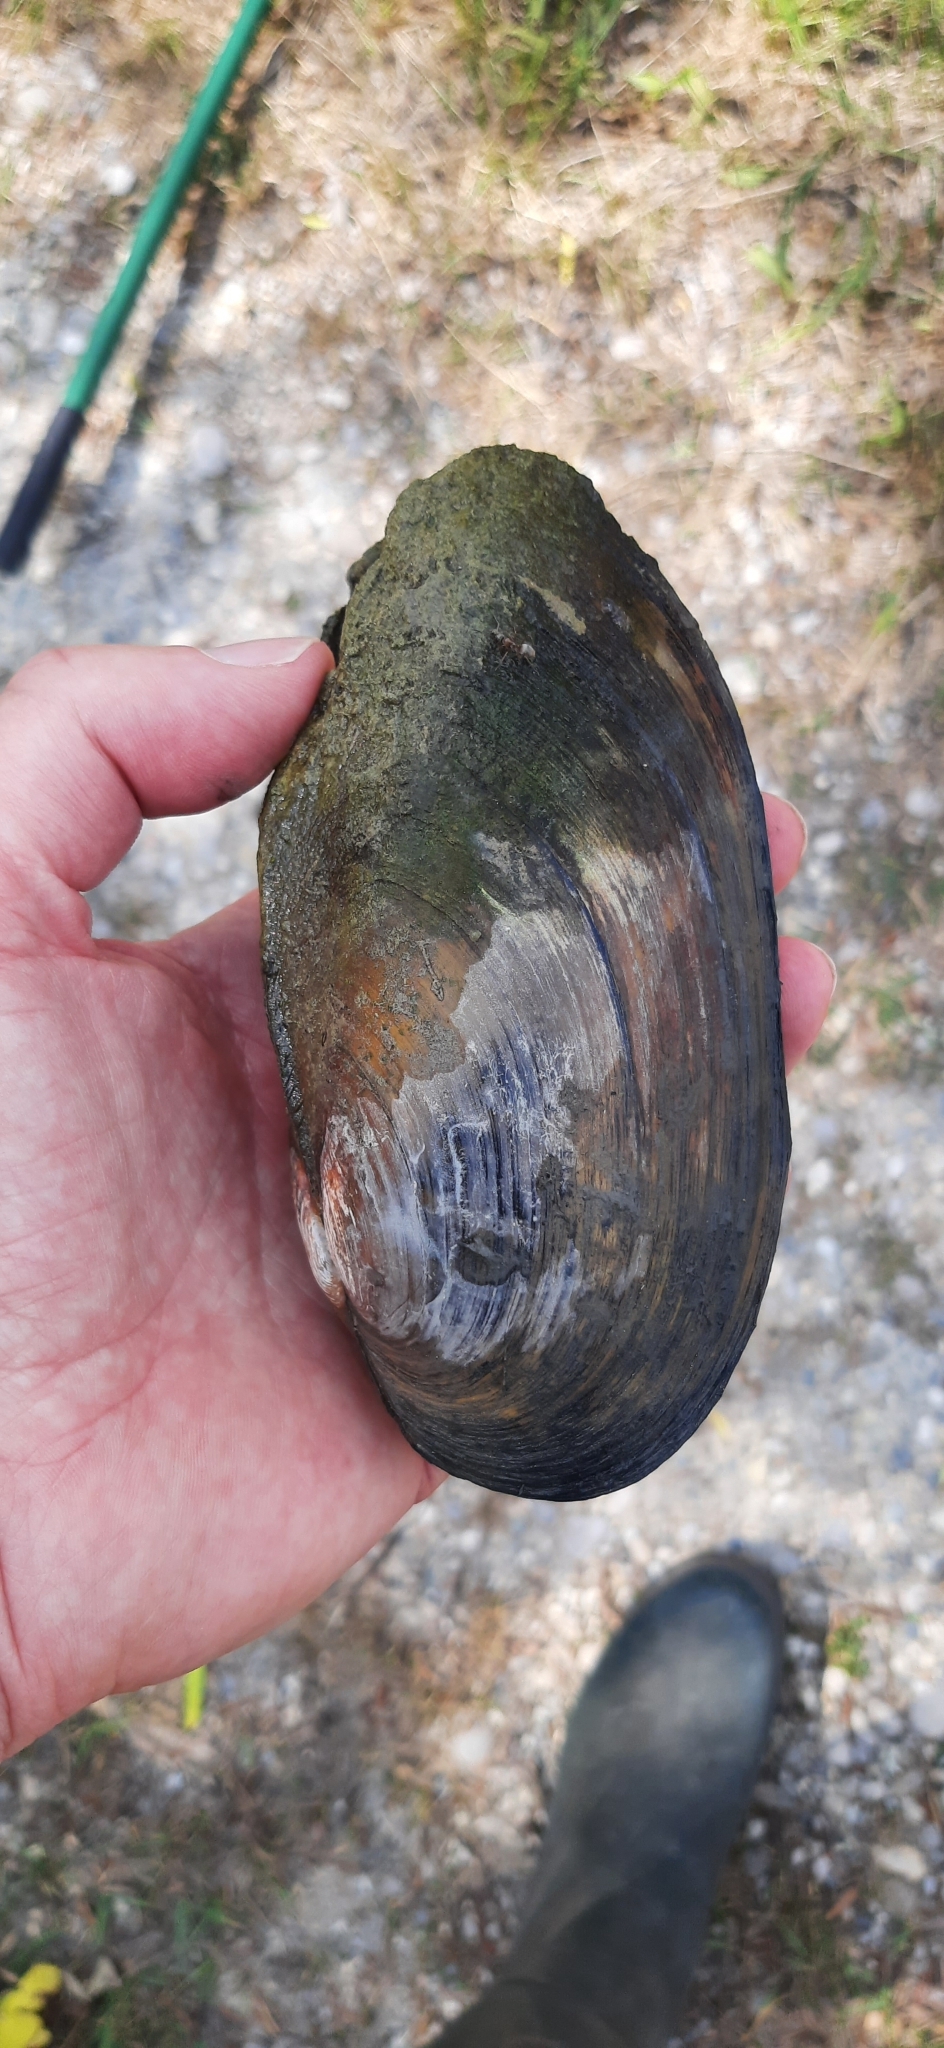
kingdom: Animalia
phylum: Mollusca
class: Bivalvia
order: Unionida
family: Unionidae
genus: Anodonta
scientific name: Anodonta cygnea
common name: Swan mussel
